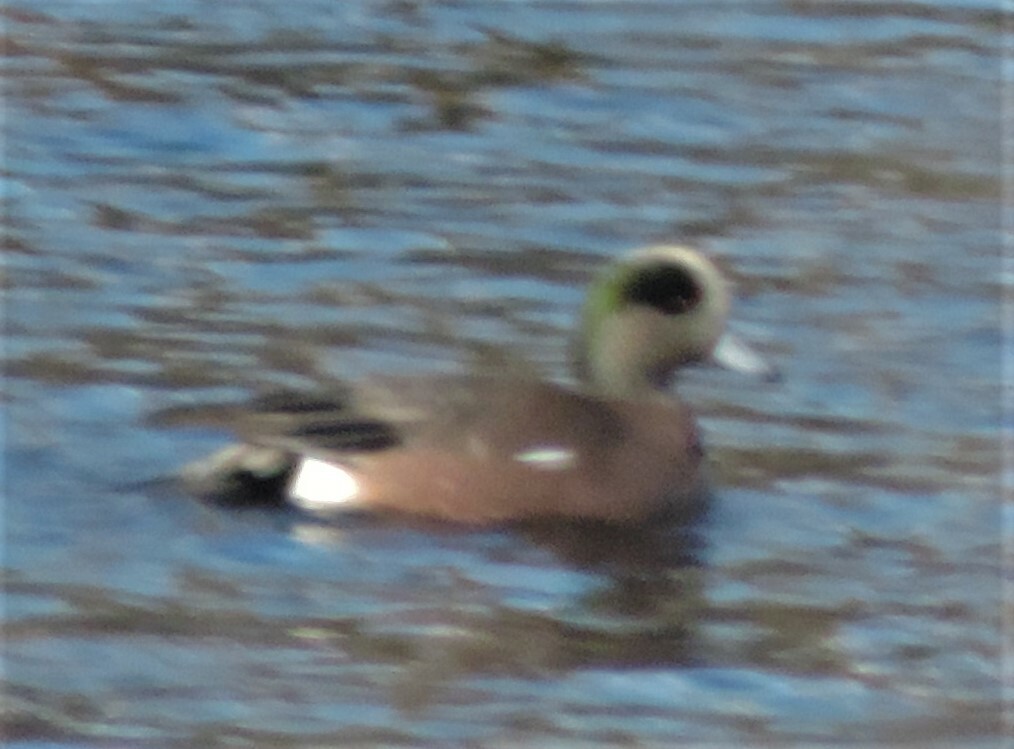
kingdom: Animalia
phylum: Chordata
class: Aves
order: Anseriformes
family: Anatidae
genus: Mareca
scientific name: Mareca americana
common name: American wigeon
